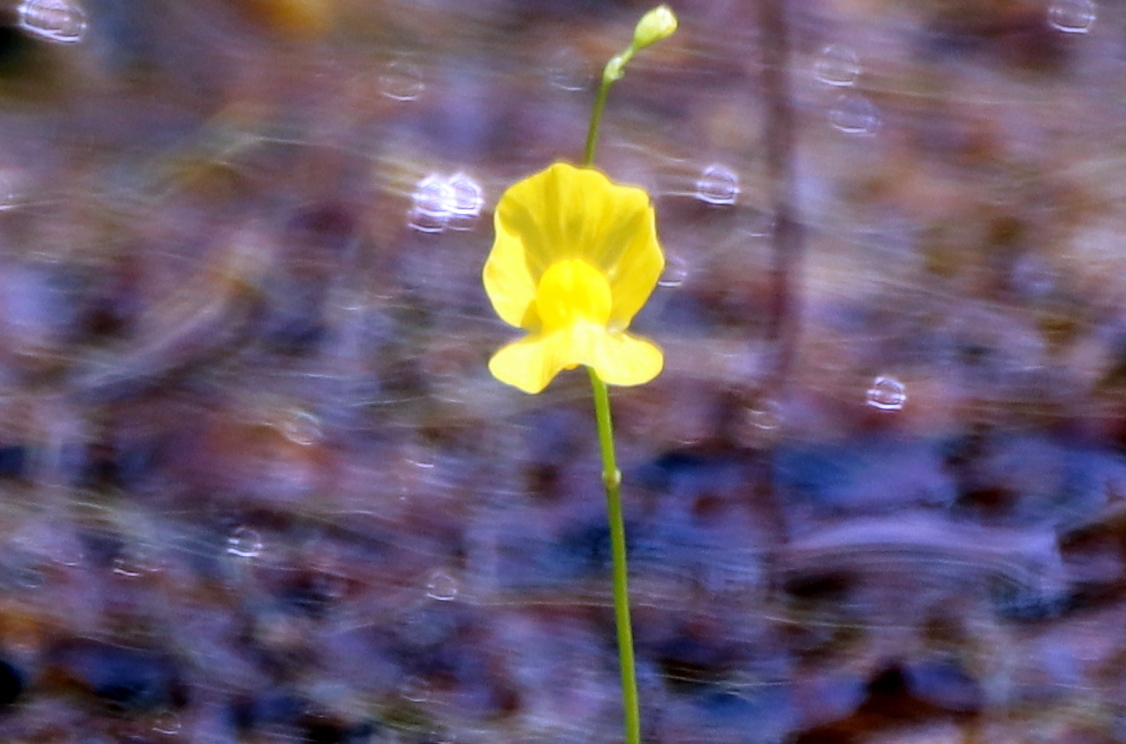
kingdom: Plantae
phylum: Tracheophyta
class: Magnoliopsida
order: Lamiales
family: Lentibulariaceae
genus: Utricularia
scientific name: Utricularia gibba
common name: Humped bladderwort
